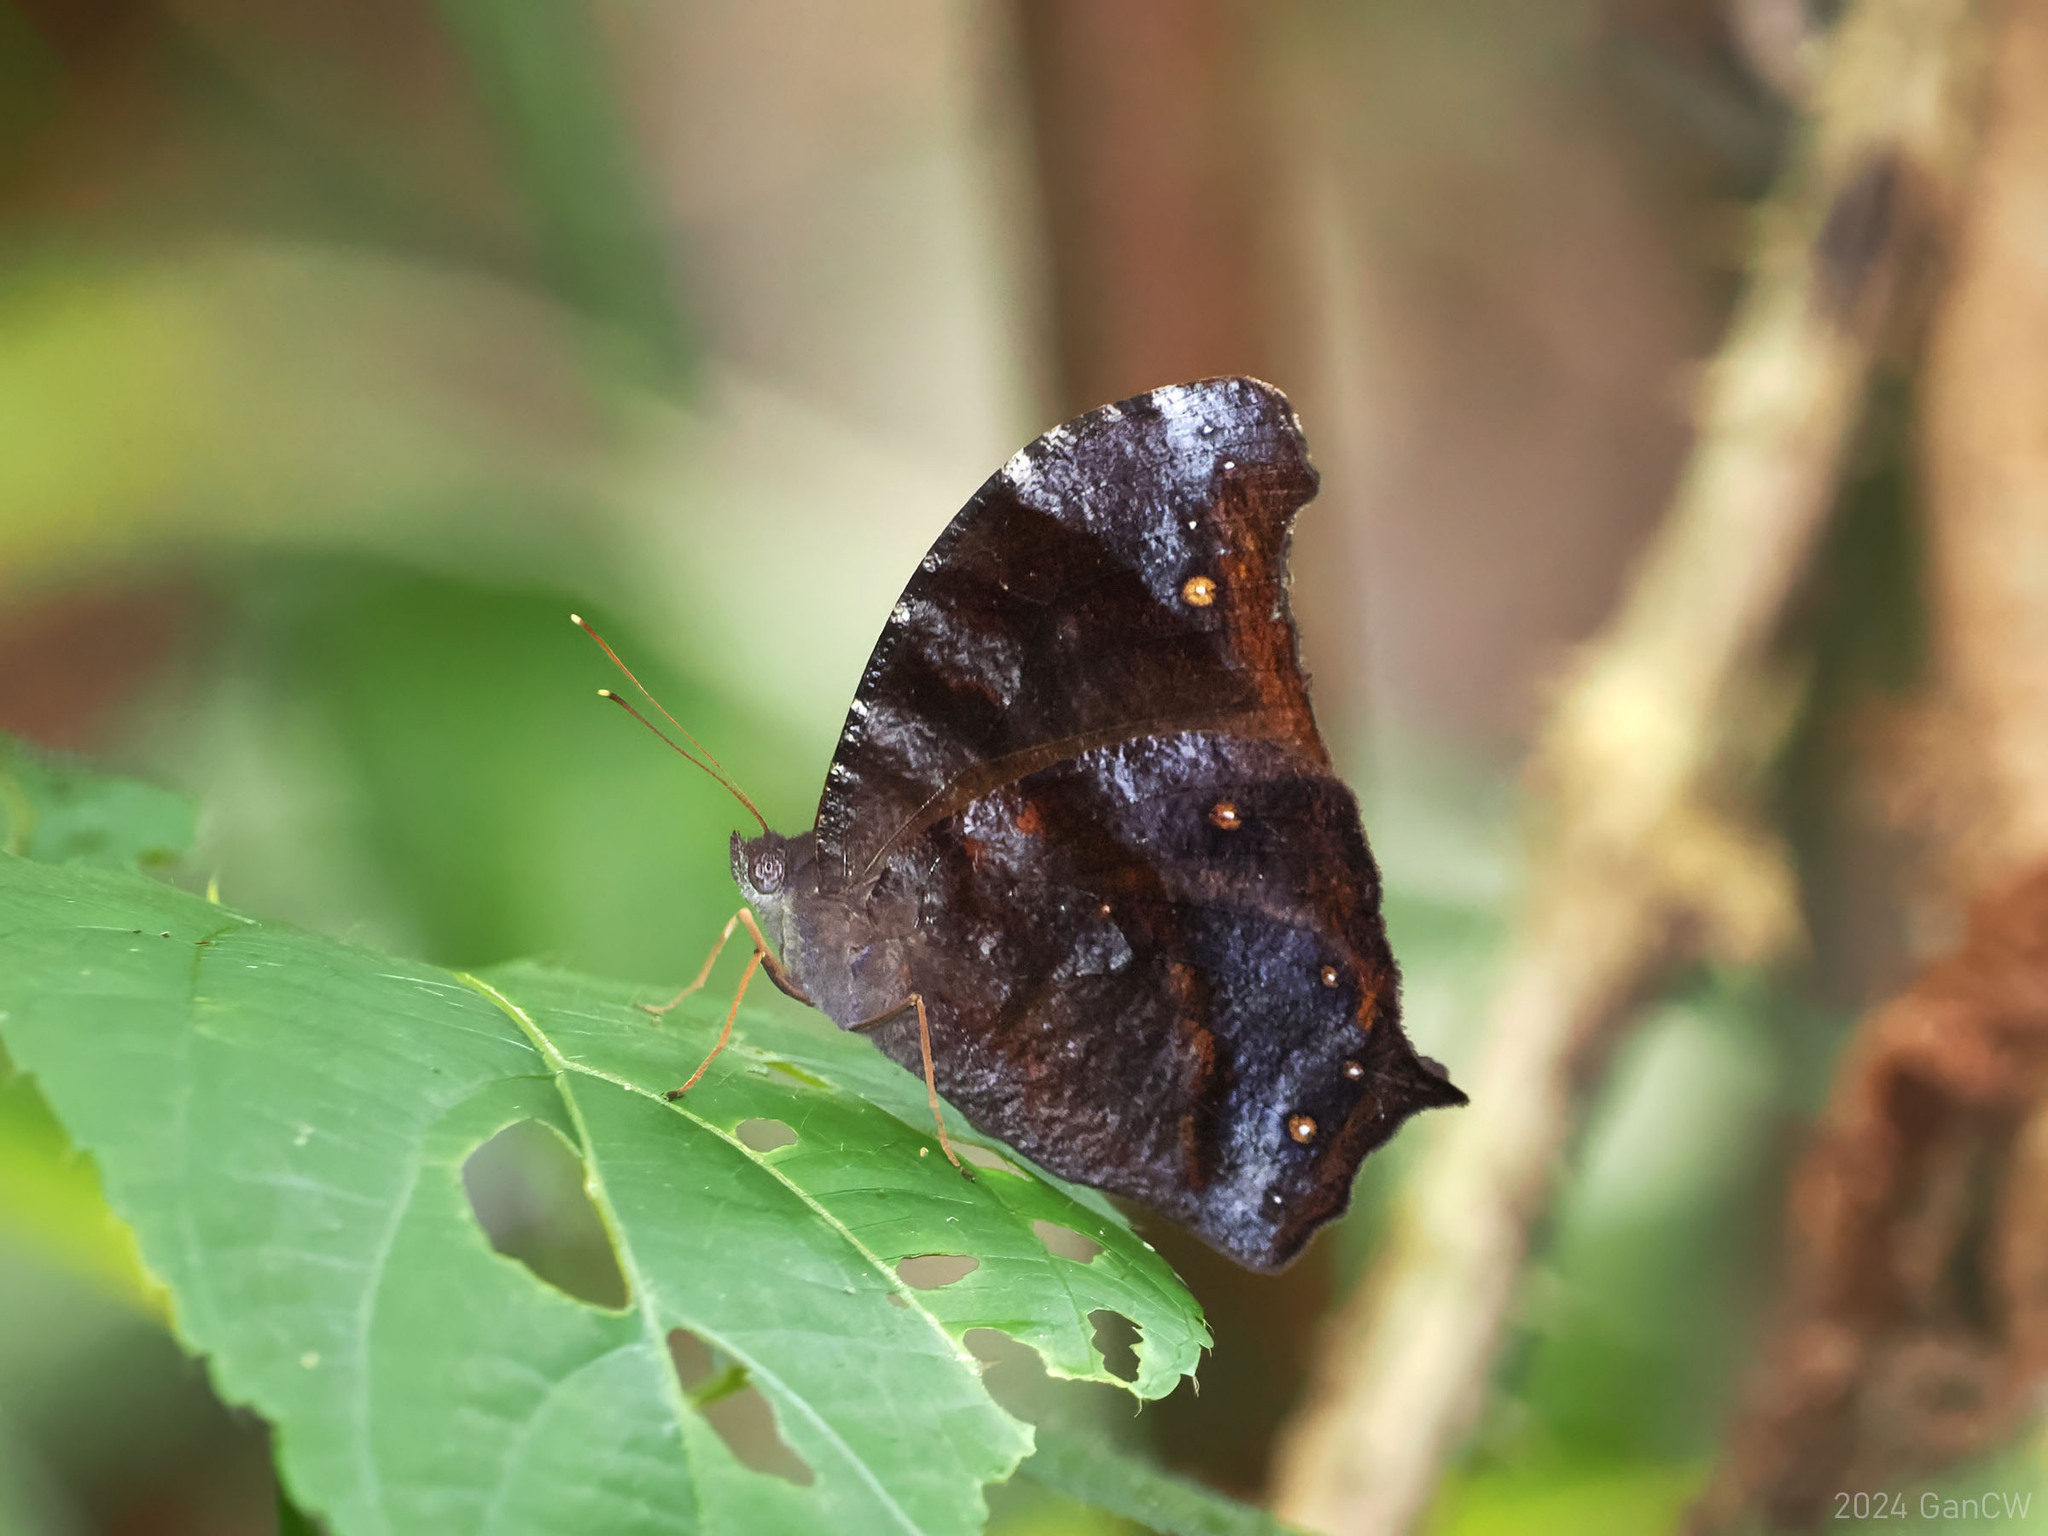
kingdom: Animalia
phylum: Arthropoda
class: Insecta
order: Lepidoptera
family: Nymphalidae
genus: Melanitis
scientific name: Melanitis atrax
